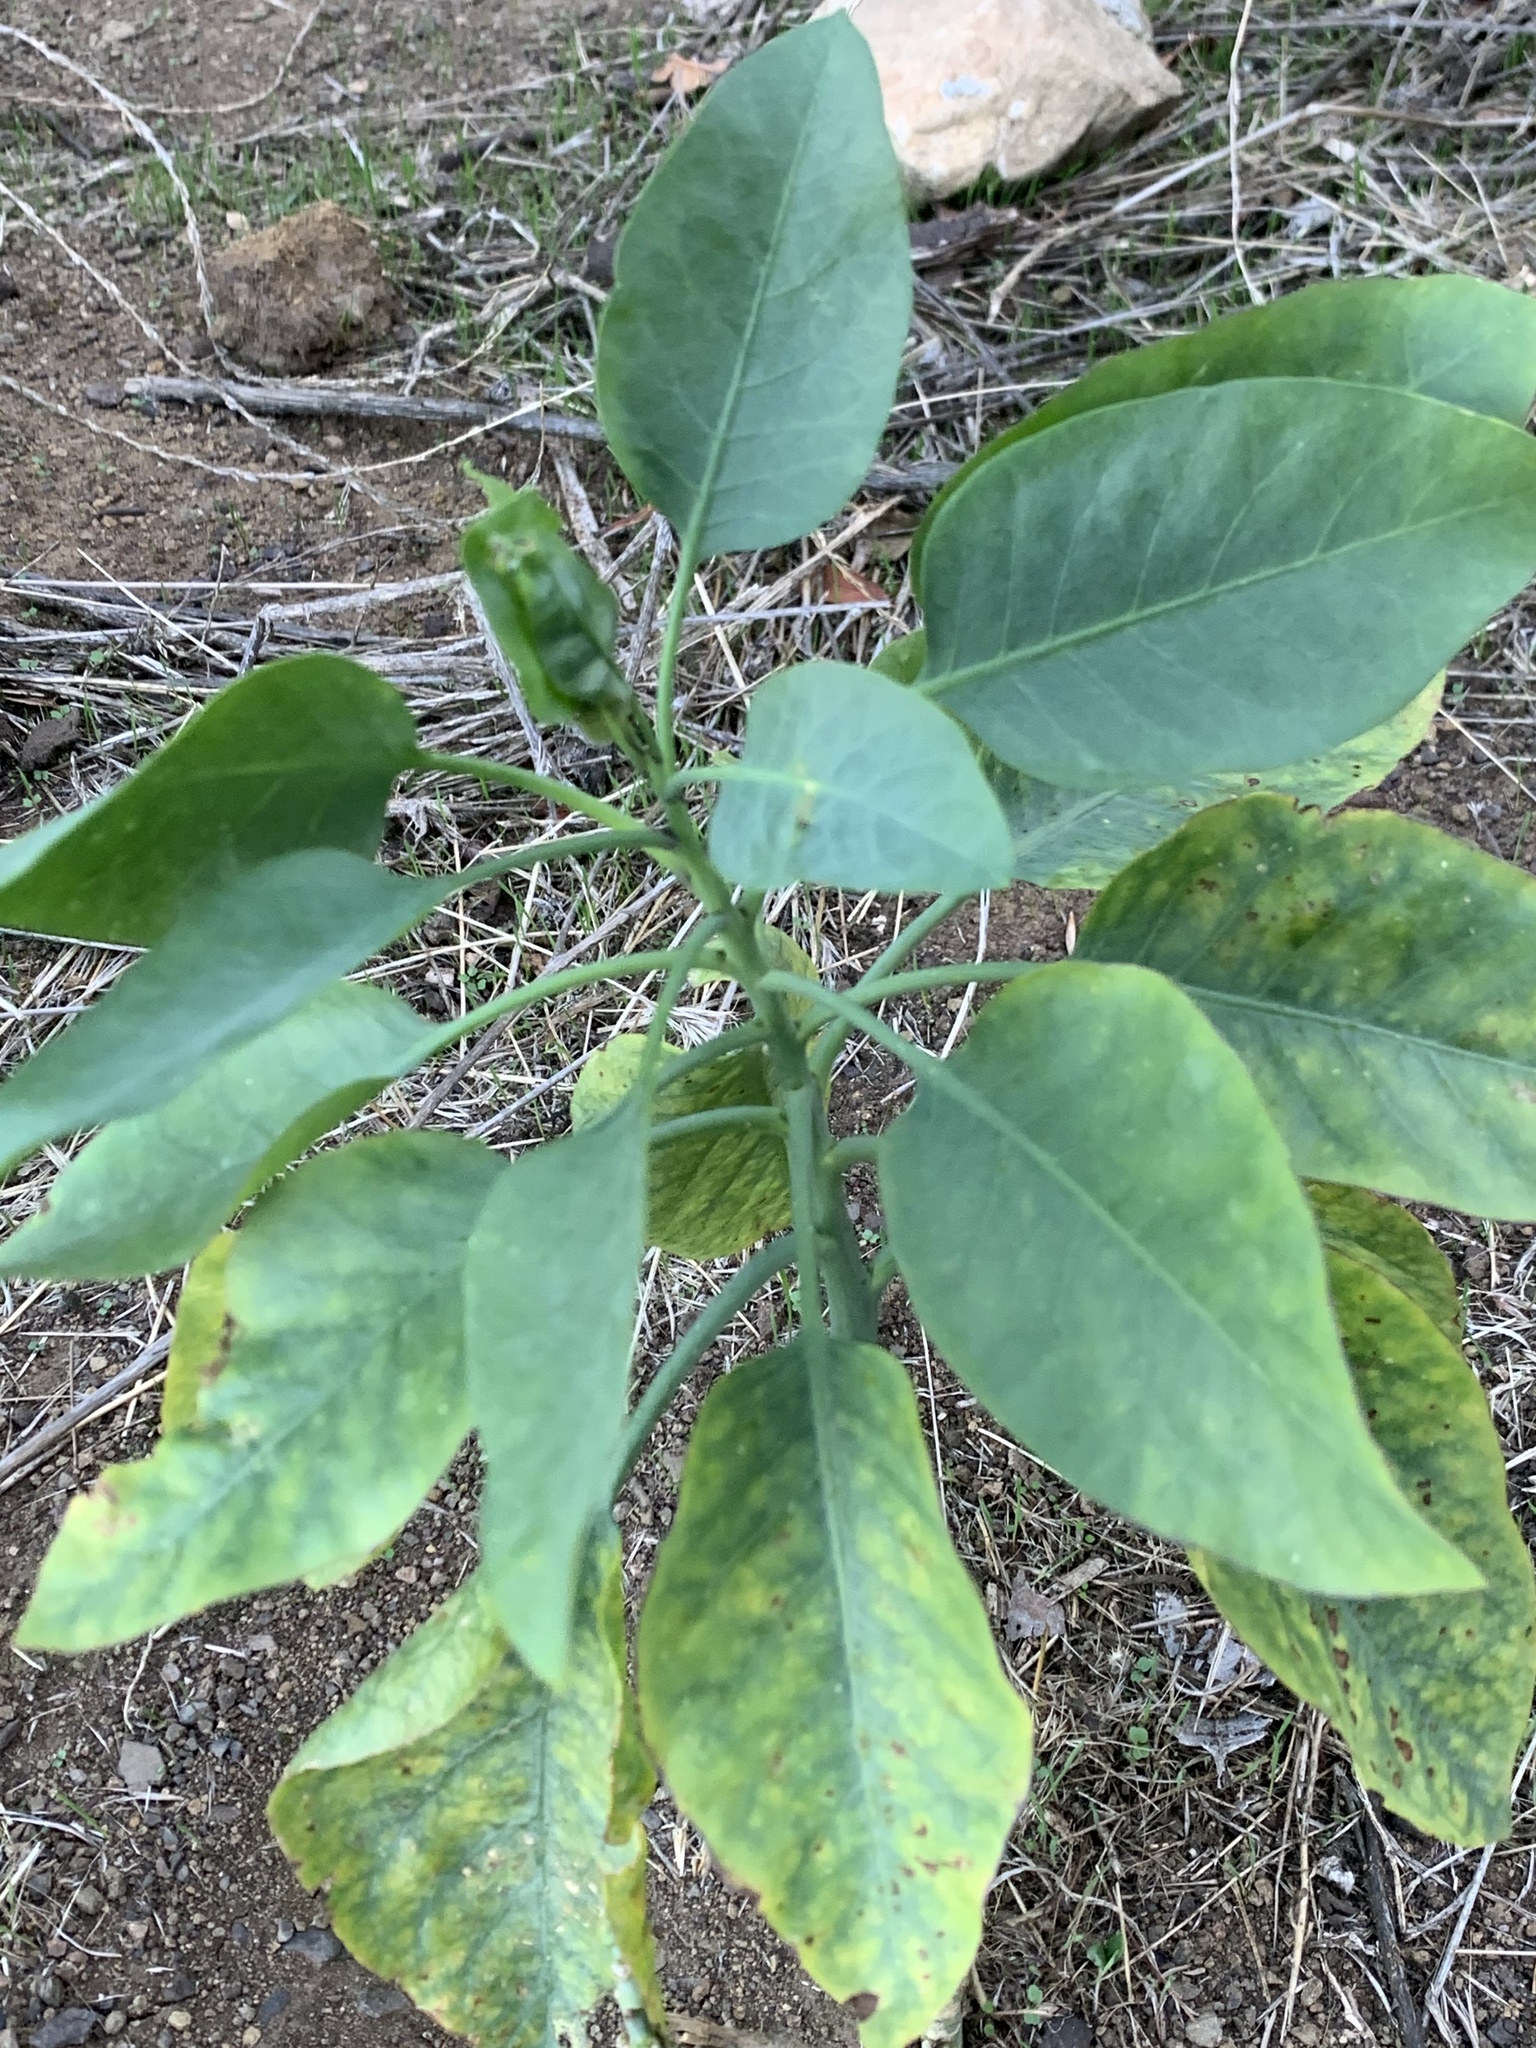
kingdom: Plantae
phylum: Tracheophyta
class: Magnoliopsida
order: Solanales
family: Solanaceae
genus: Nicotiana
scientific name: Nicotiana glauca
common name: Tree tobacco
